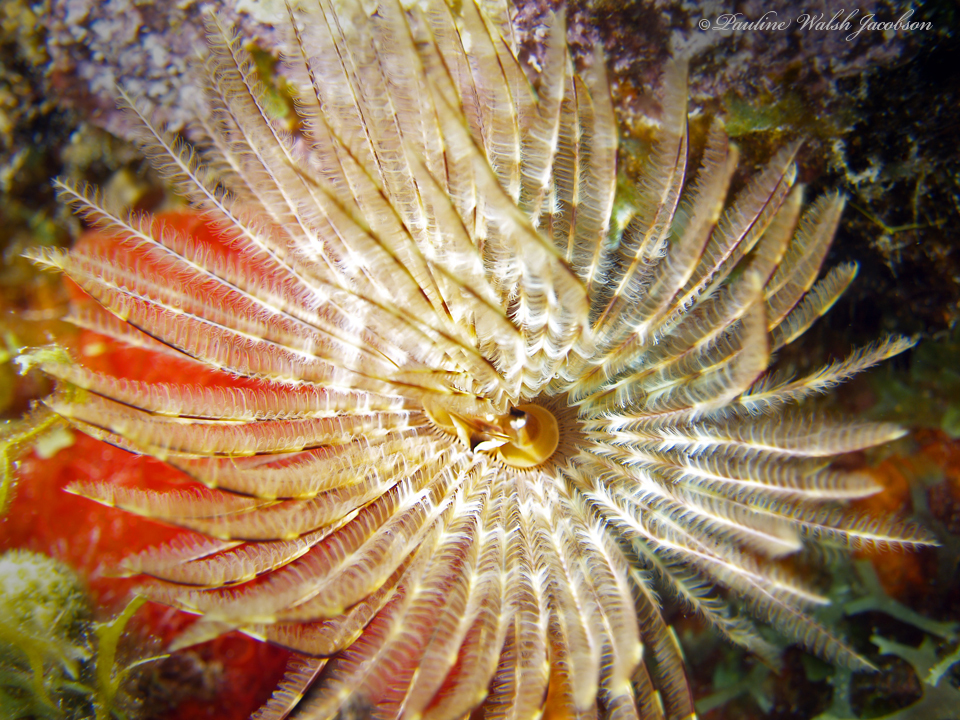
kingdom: Animalia
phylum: Annelida
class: Polychaeta
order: Sabellida
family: Sabellidae
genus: Sabellastarte
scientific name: Sabellastarte magnifica
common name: Giant feather-duster worm
